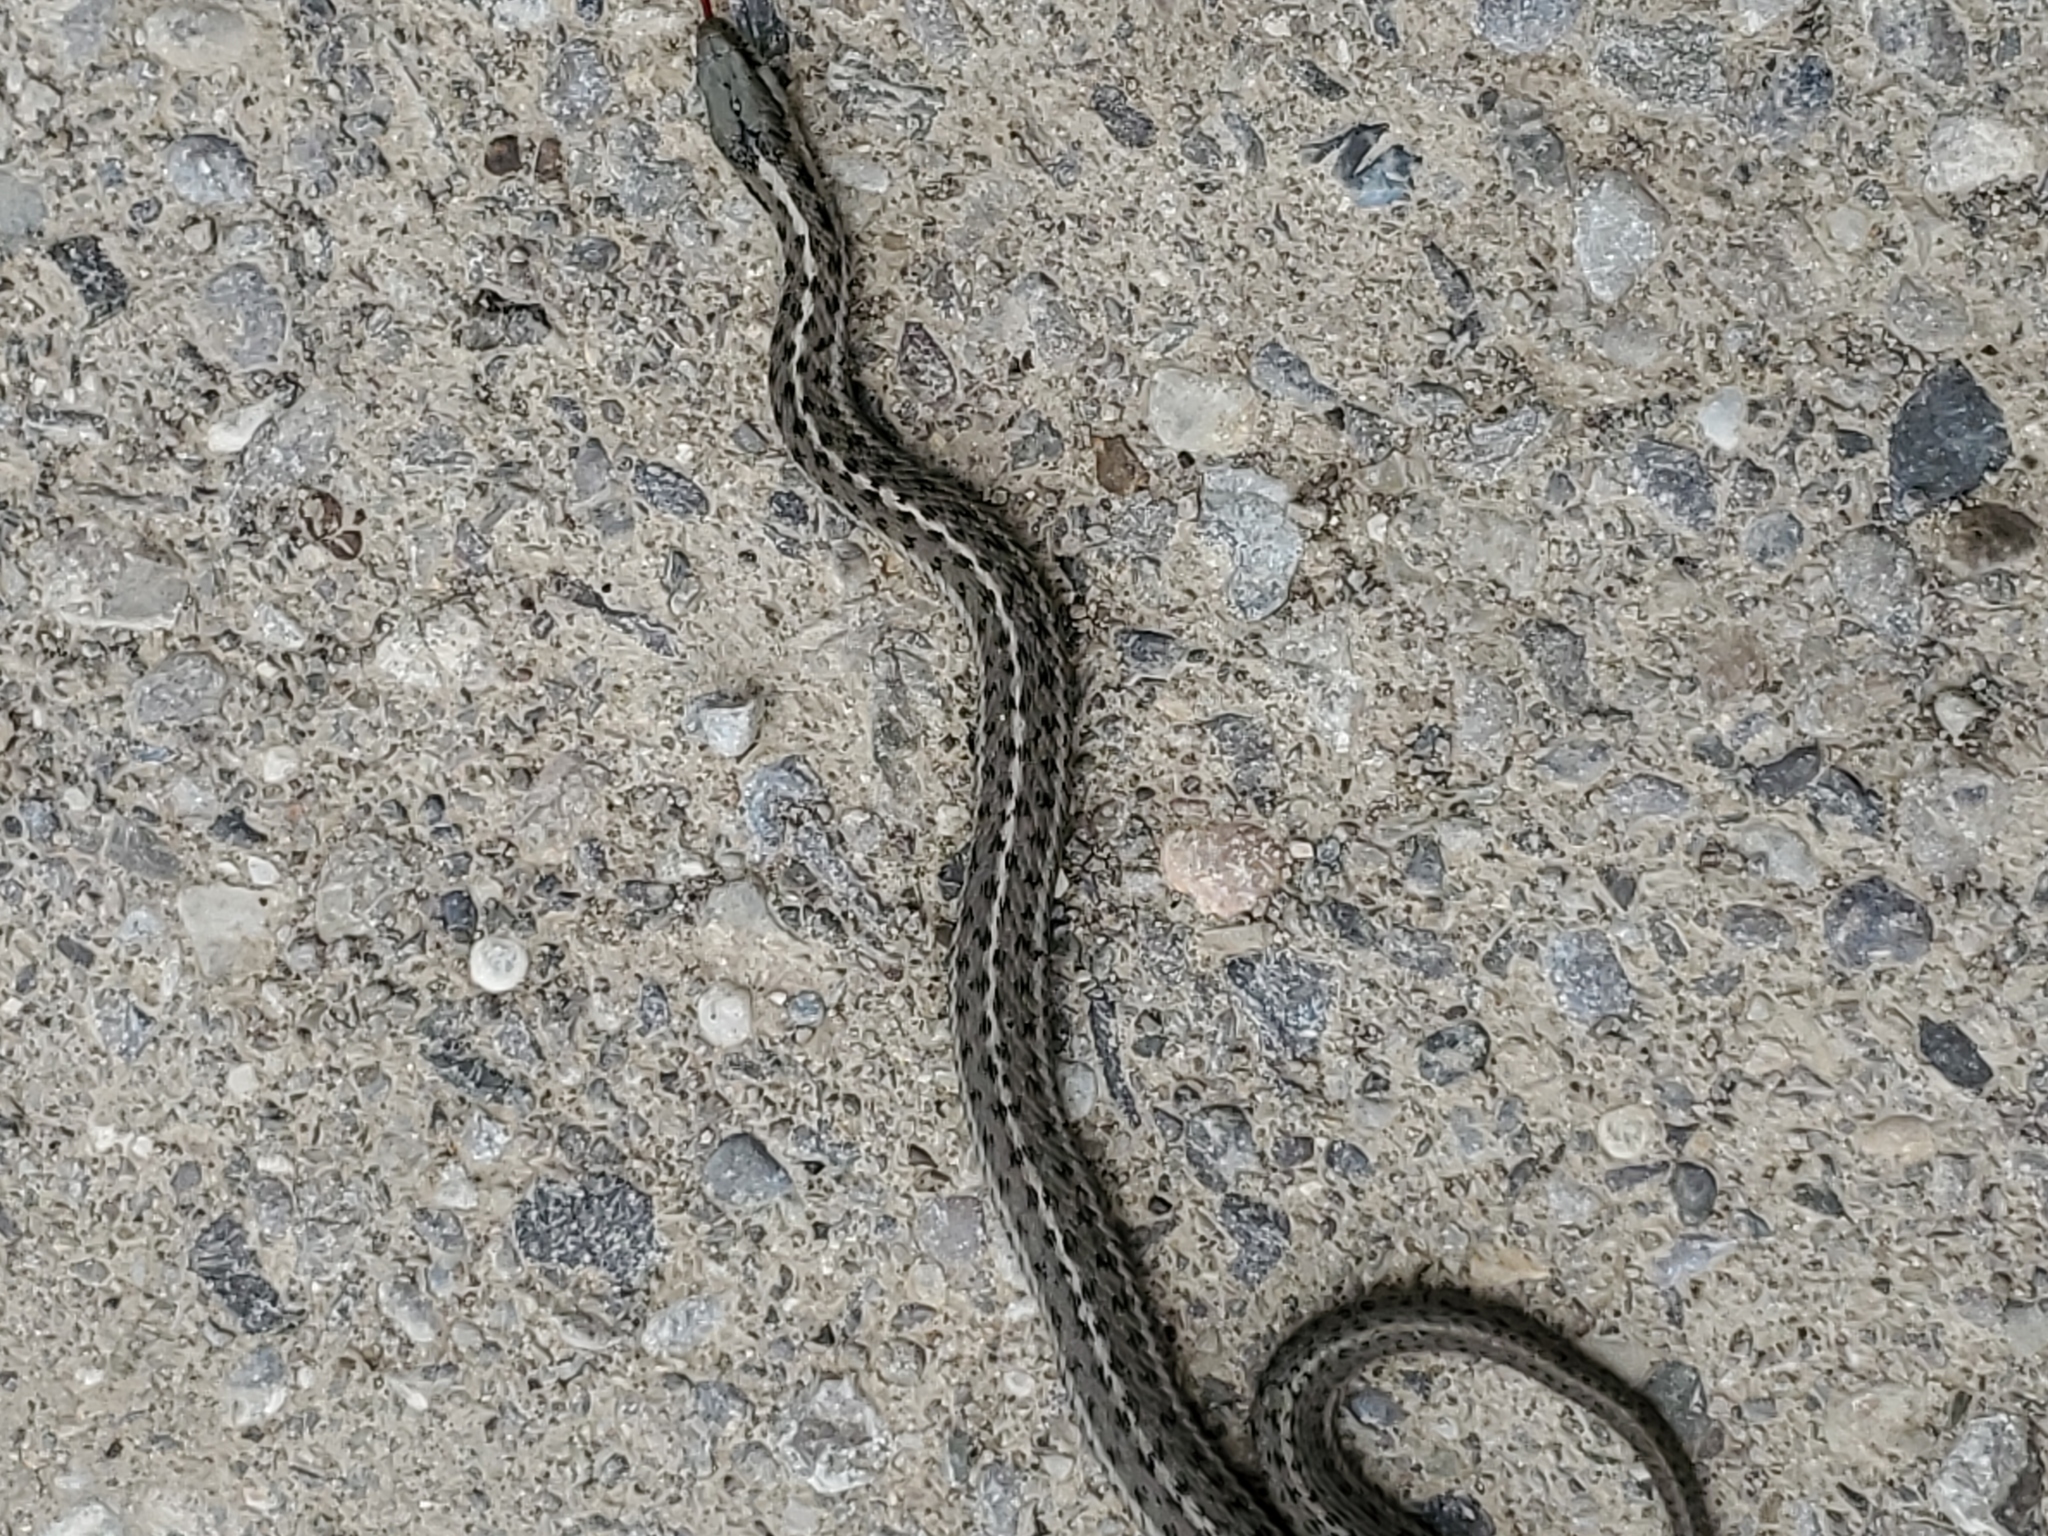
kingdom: Animalia
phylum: Chordata
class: Squamata
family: Colubridae
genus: Thamnophis
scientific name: Thamnophis elegans
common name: Western terrestrial garter snake
